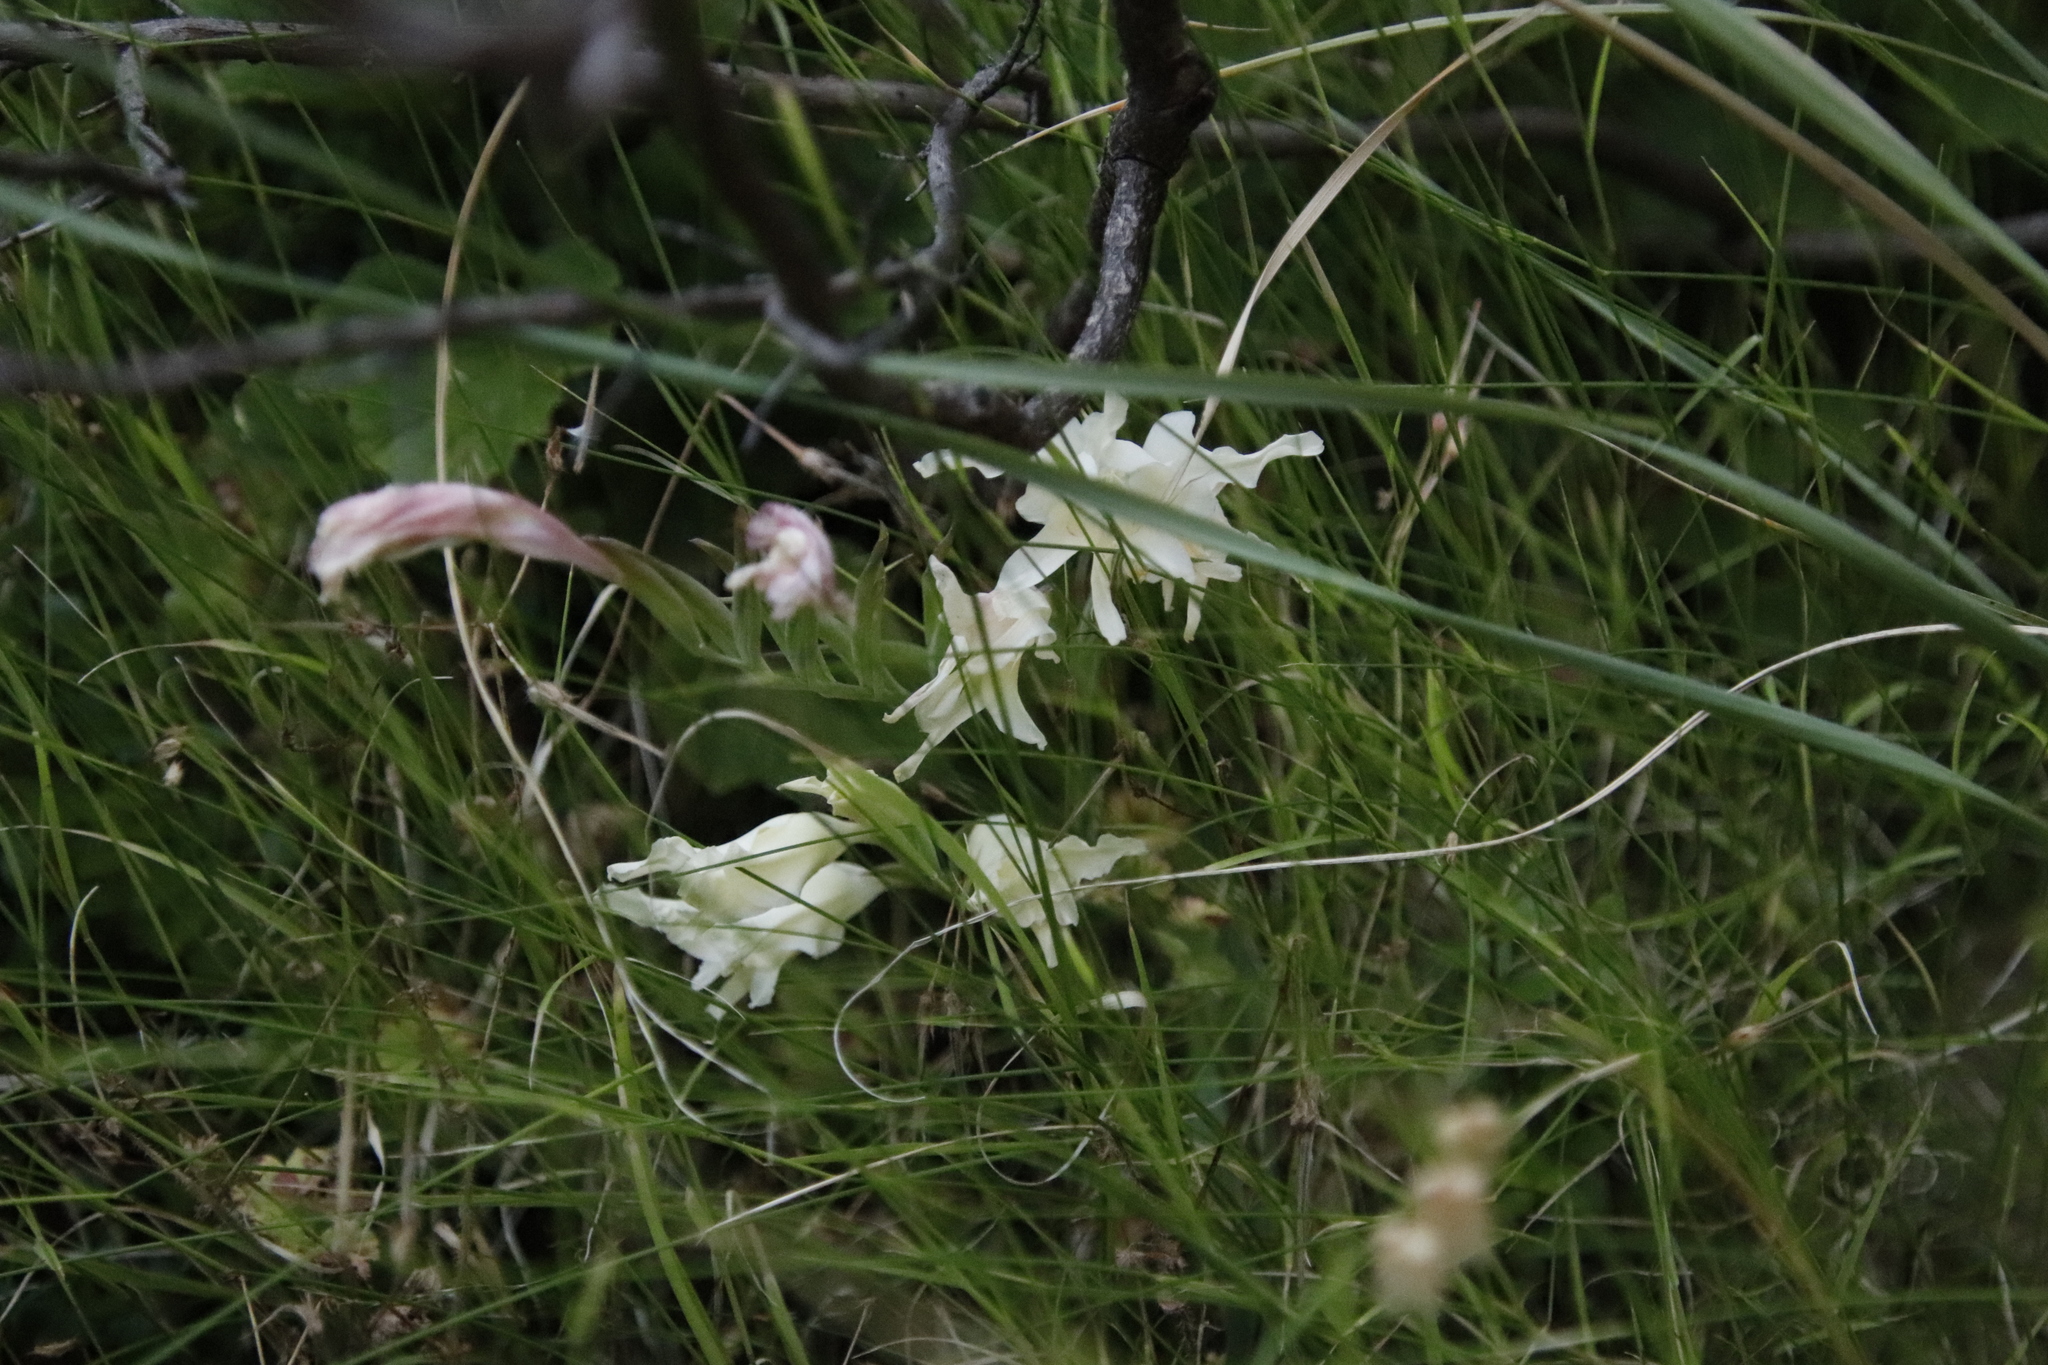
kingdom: Plantae
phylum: Tracheophyta
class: Liliopsida
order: Asparagales
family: Iridaceae
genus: Gladiolus
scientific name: Gladiolus undulatus
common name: Large painted-lady
